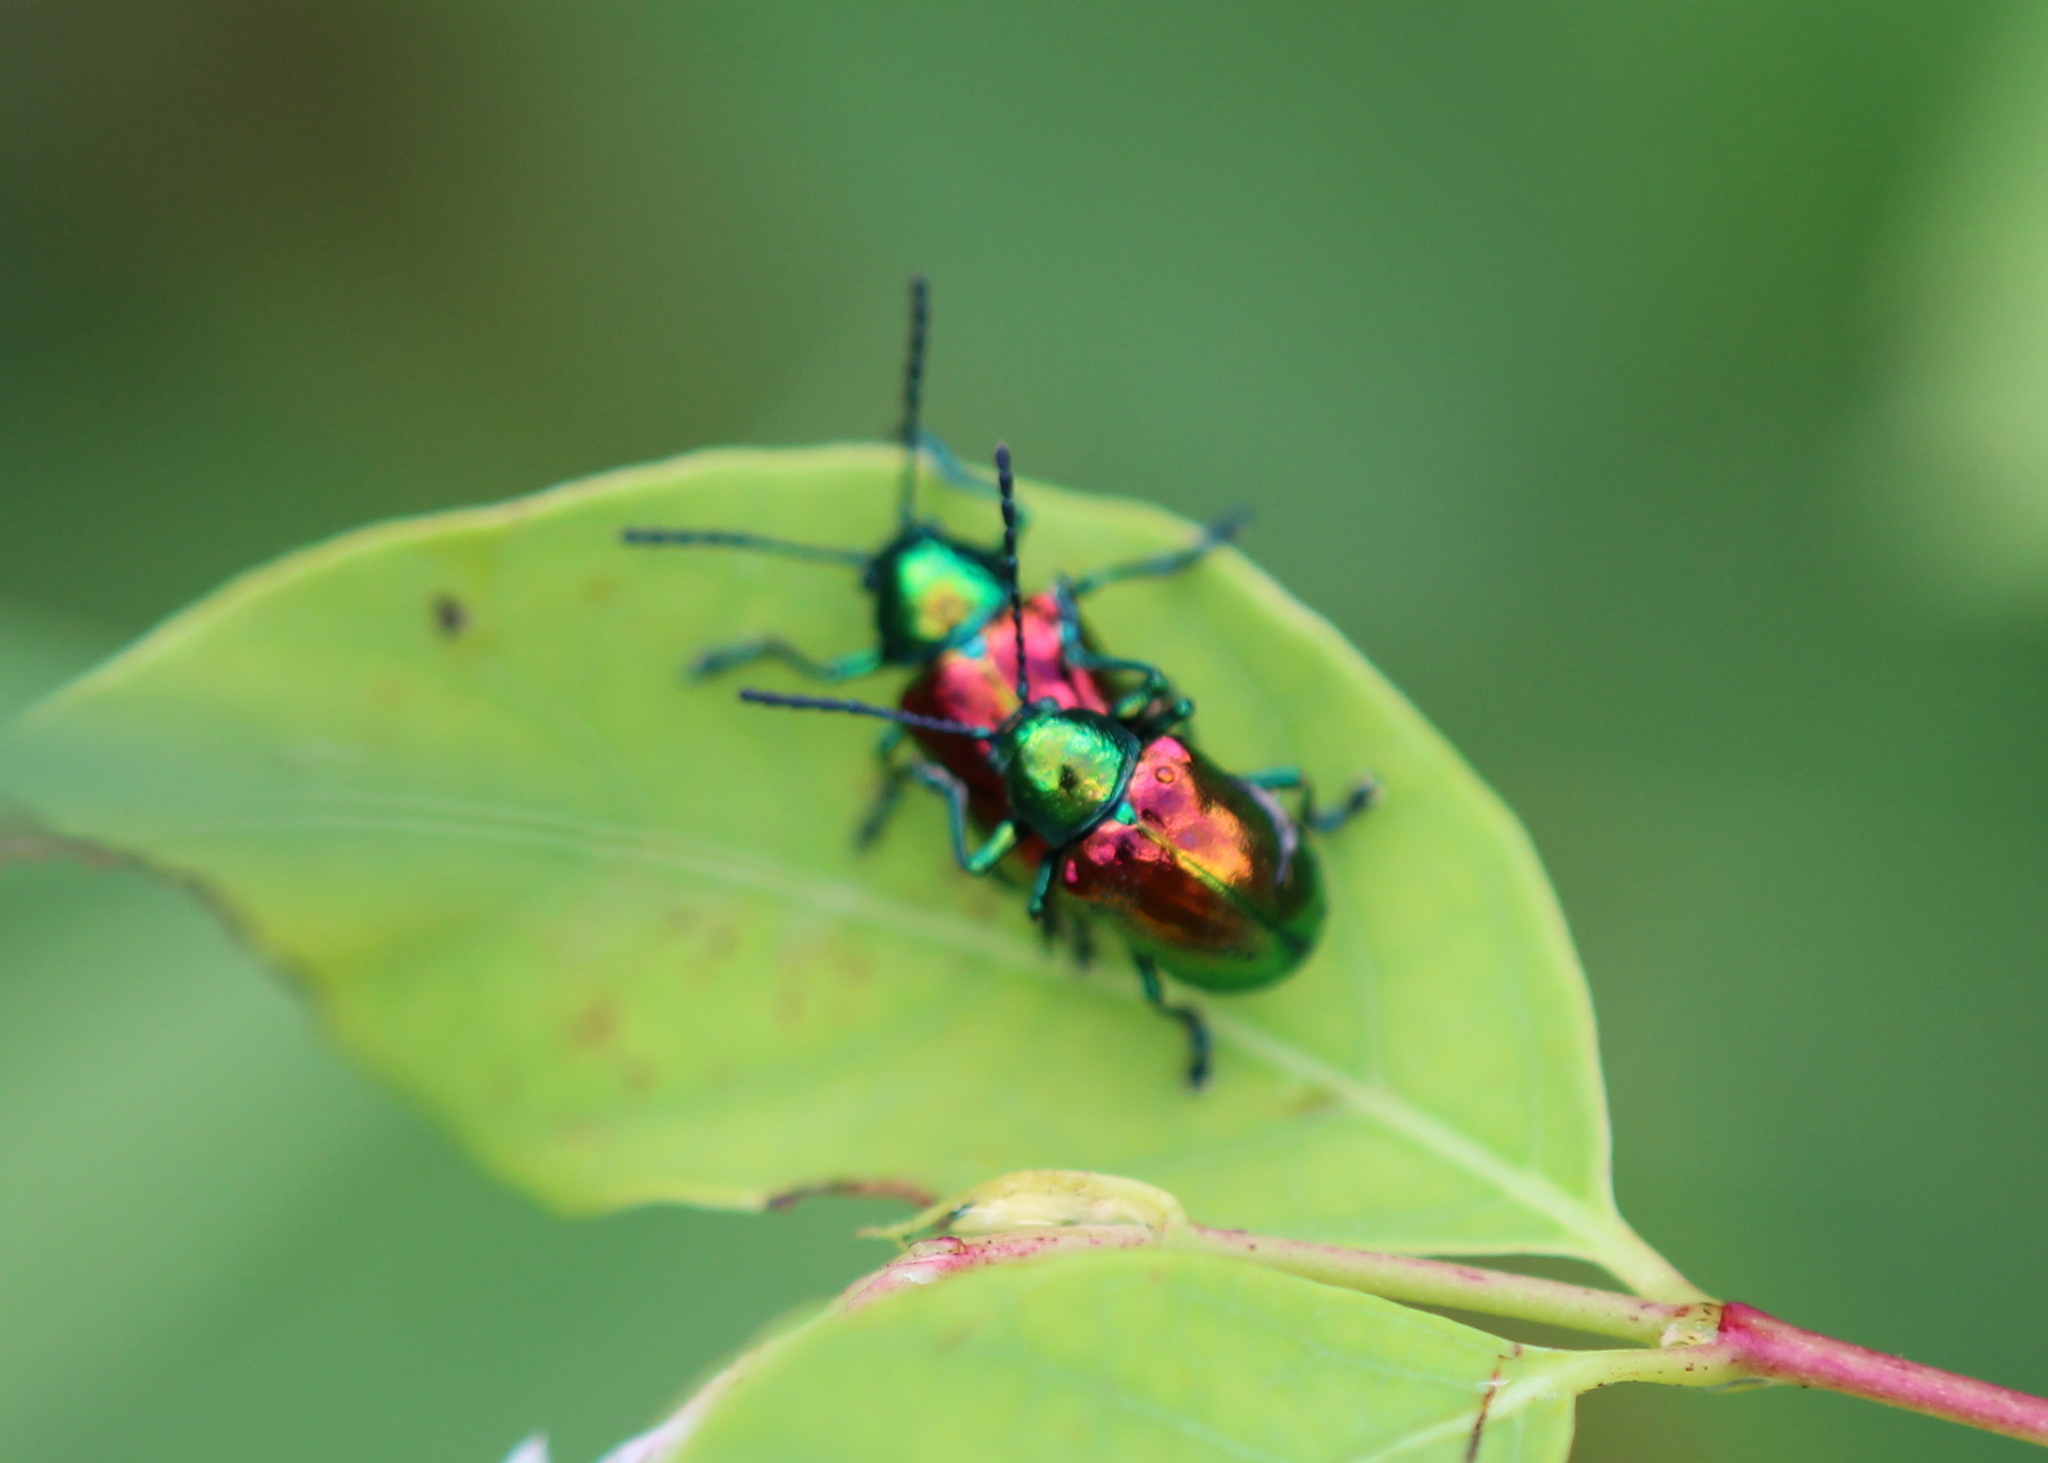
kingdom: Animalia
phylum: Arthropoda
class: Insecta
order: Coleoptera
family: Chrysomelidae
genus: Chrysochus
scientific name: Chrysochus auratus
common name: Dogbane leaf beetle
